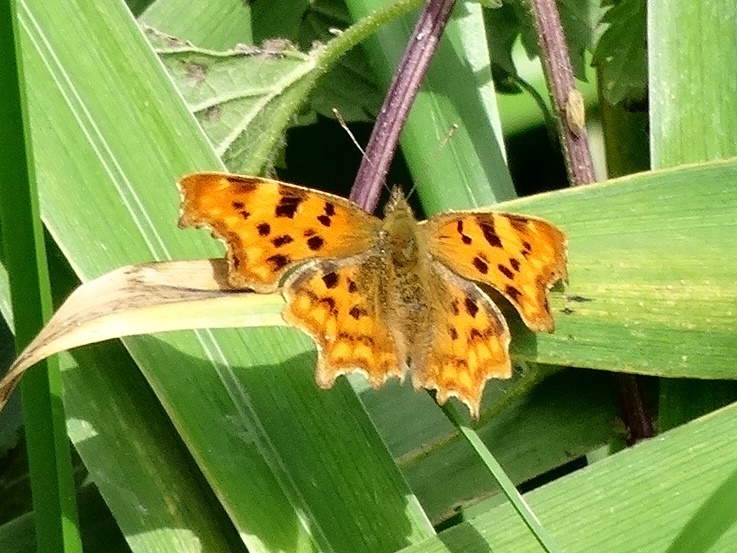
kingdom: Animalia
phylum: Arthropoda
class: Insecta
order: Lepidoptera
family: Nymphalidae
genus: Polygonia
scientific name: Polygonia c-album
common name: Comma
